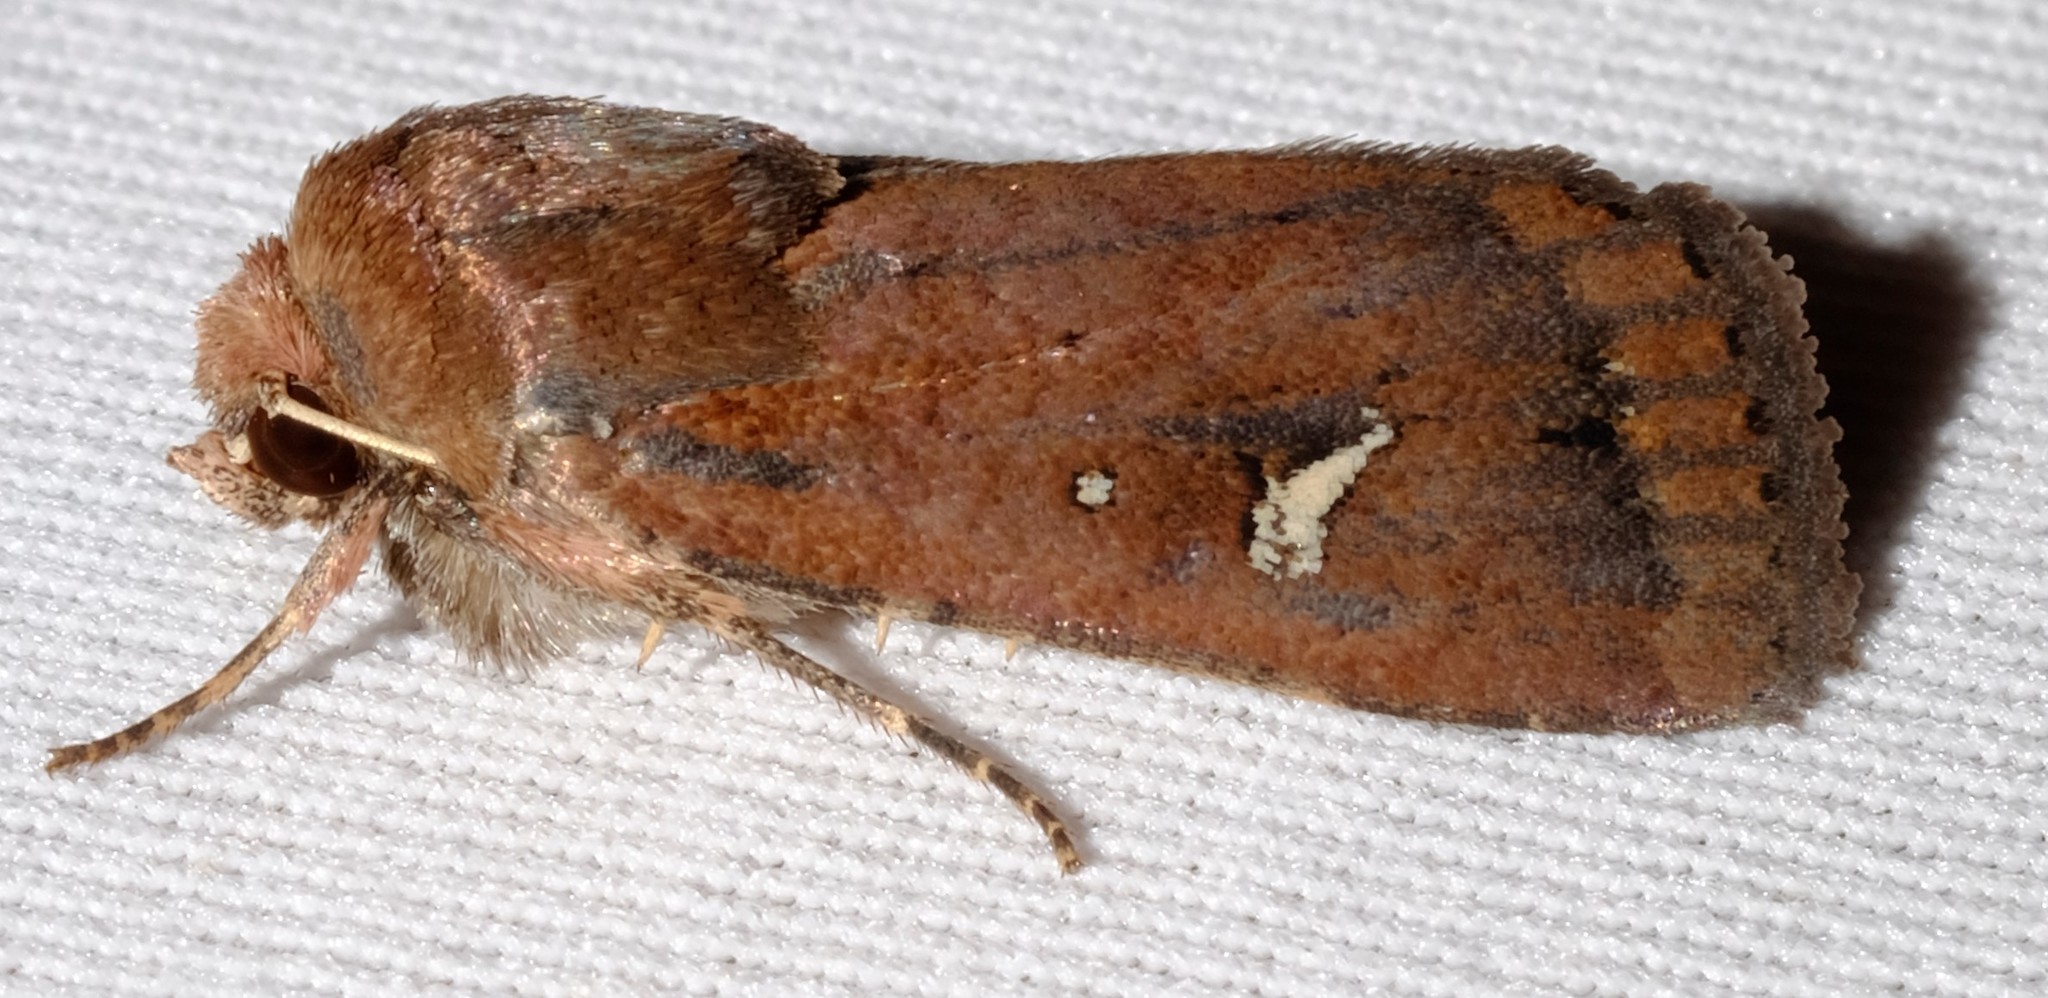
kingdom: Animalia
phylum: Arthropoda
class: Insecta
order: Lepidoptera
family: Noctuidae
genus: Proteuxoa
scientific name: Proteuxoa bistrigula
